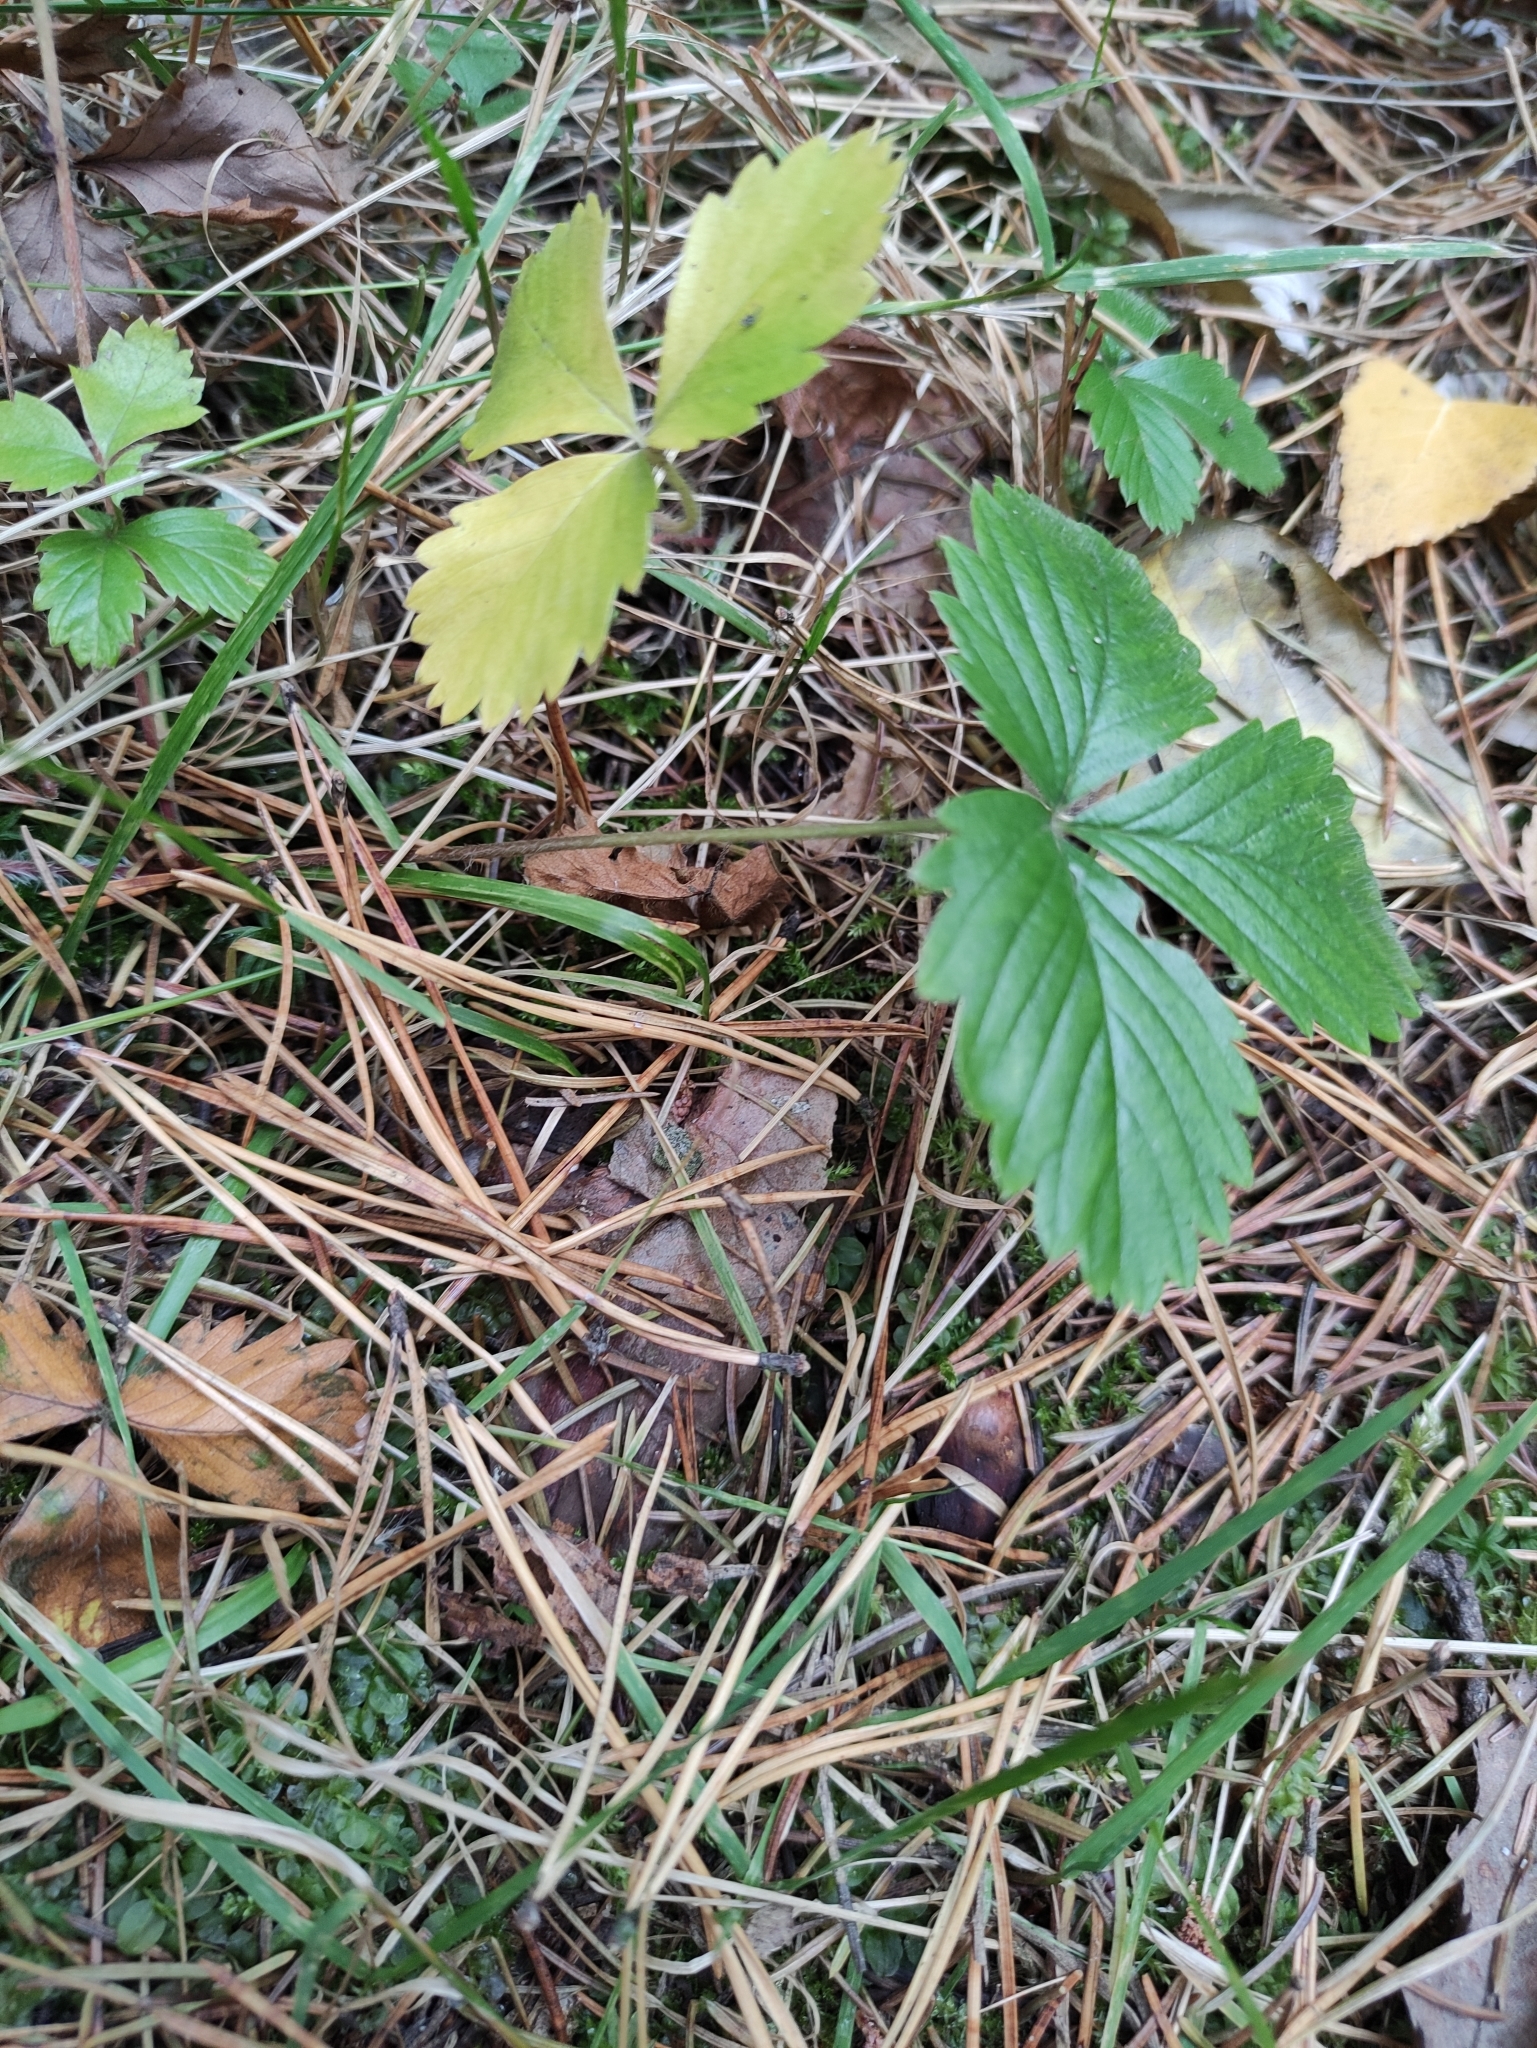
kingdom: Plantae
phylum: Tracheophyta
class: Magnoliopsida
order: Rosales
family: Rosaceae
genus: Fragaria
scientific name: Fragaria vesca
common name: Wild strawberry
